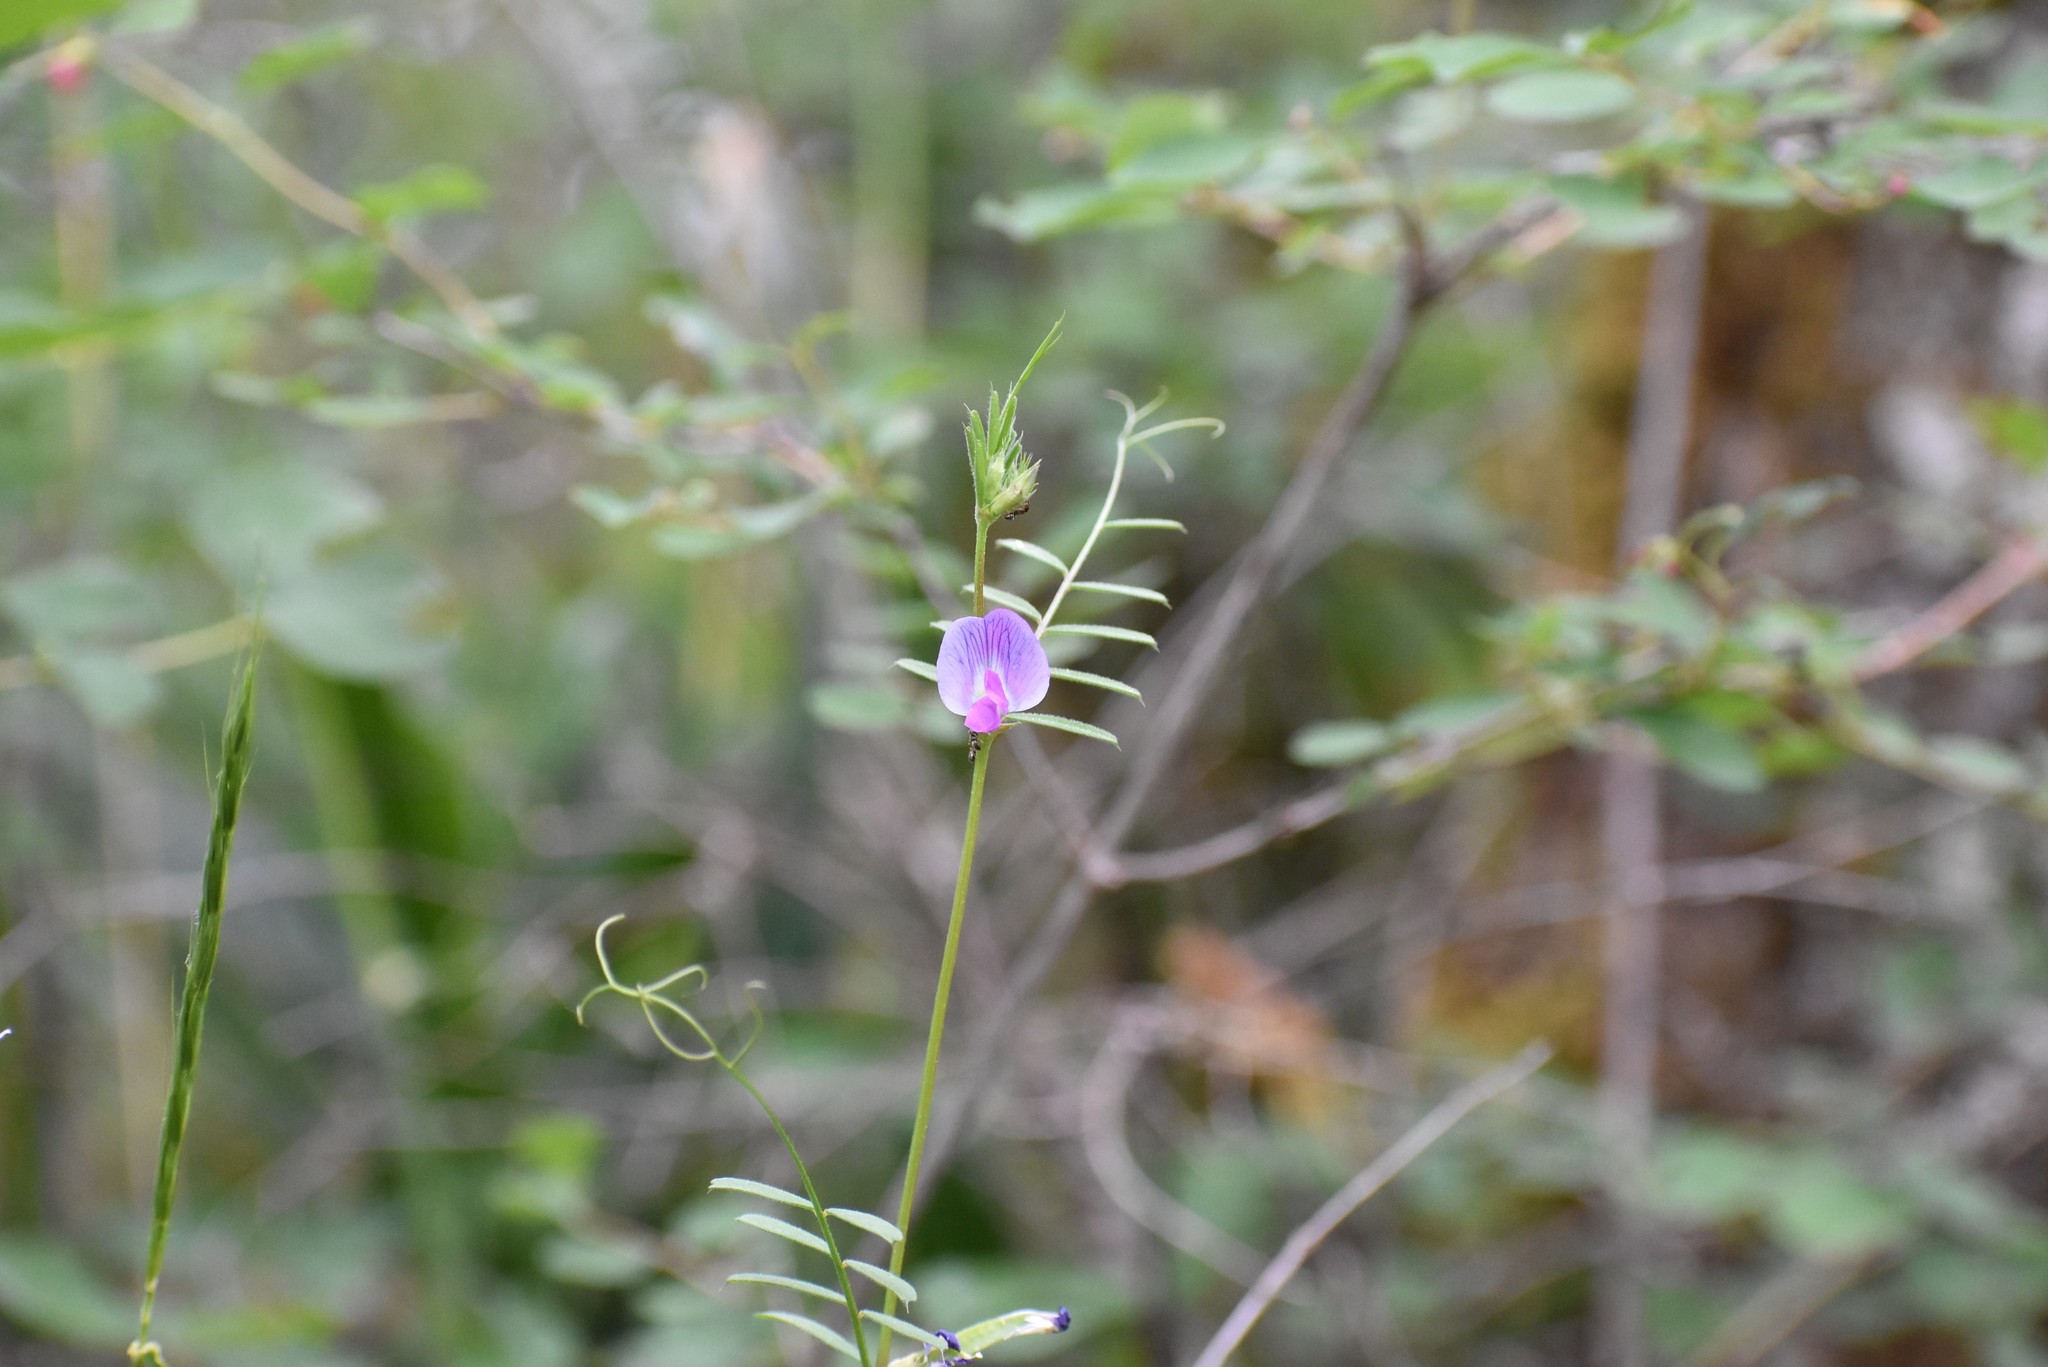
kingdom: Plantae
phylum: Tracheophyta
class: Magnoliopsida
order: Fabales
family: Fabaceae
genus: Vicia
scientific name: Vicia sativa
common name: Garden vetch
